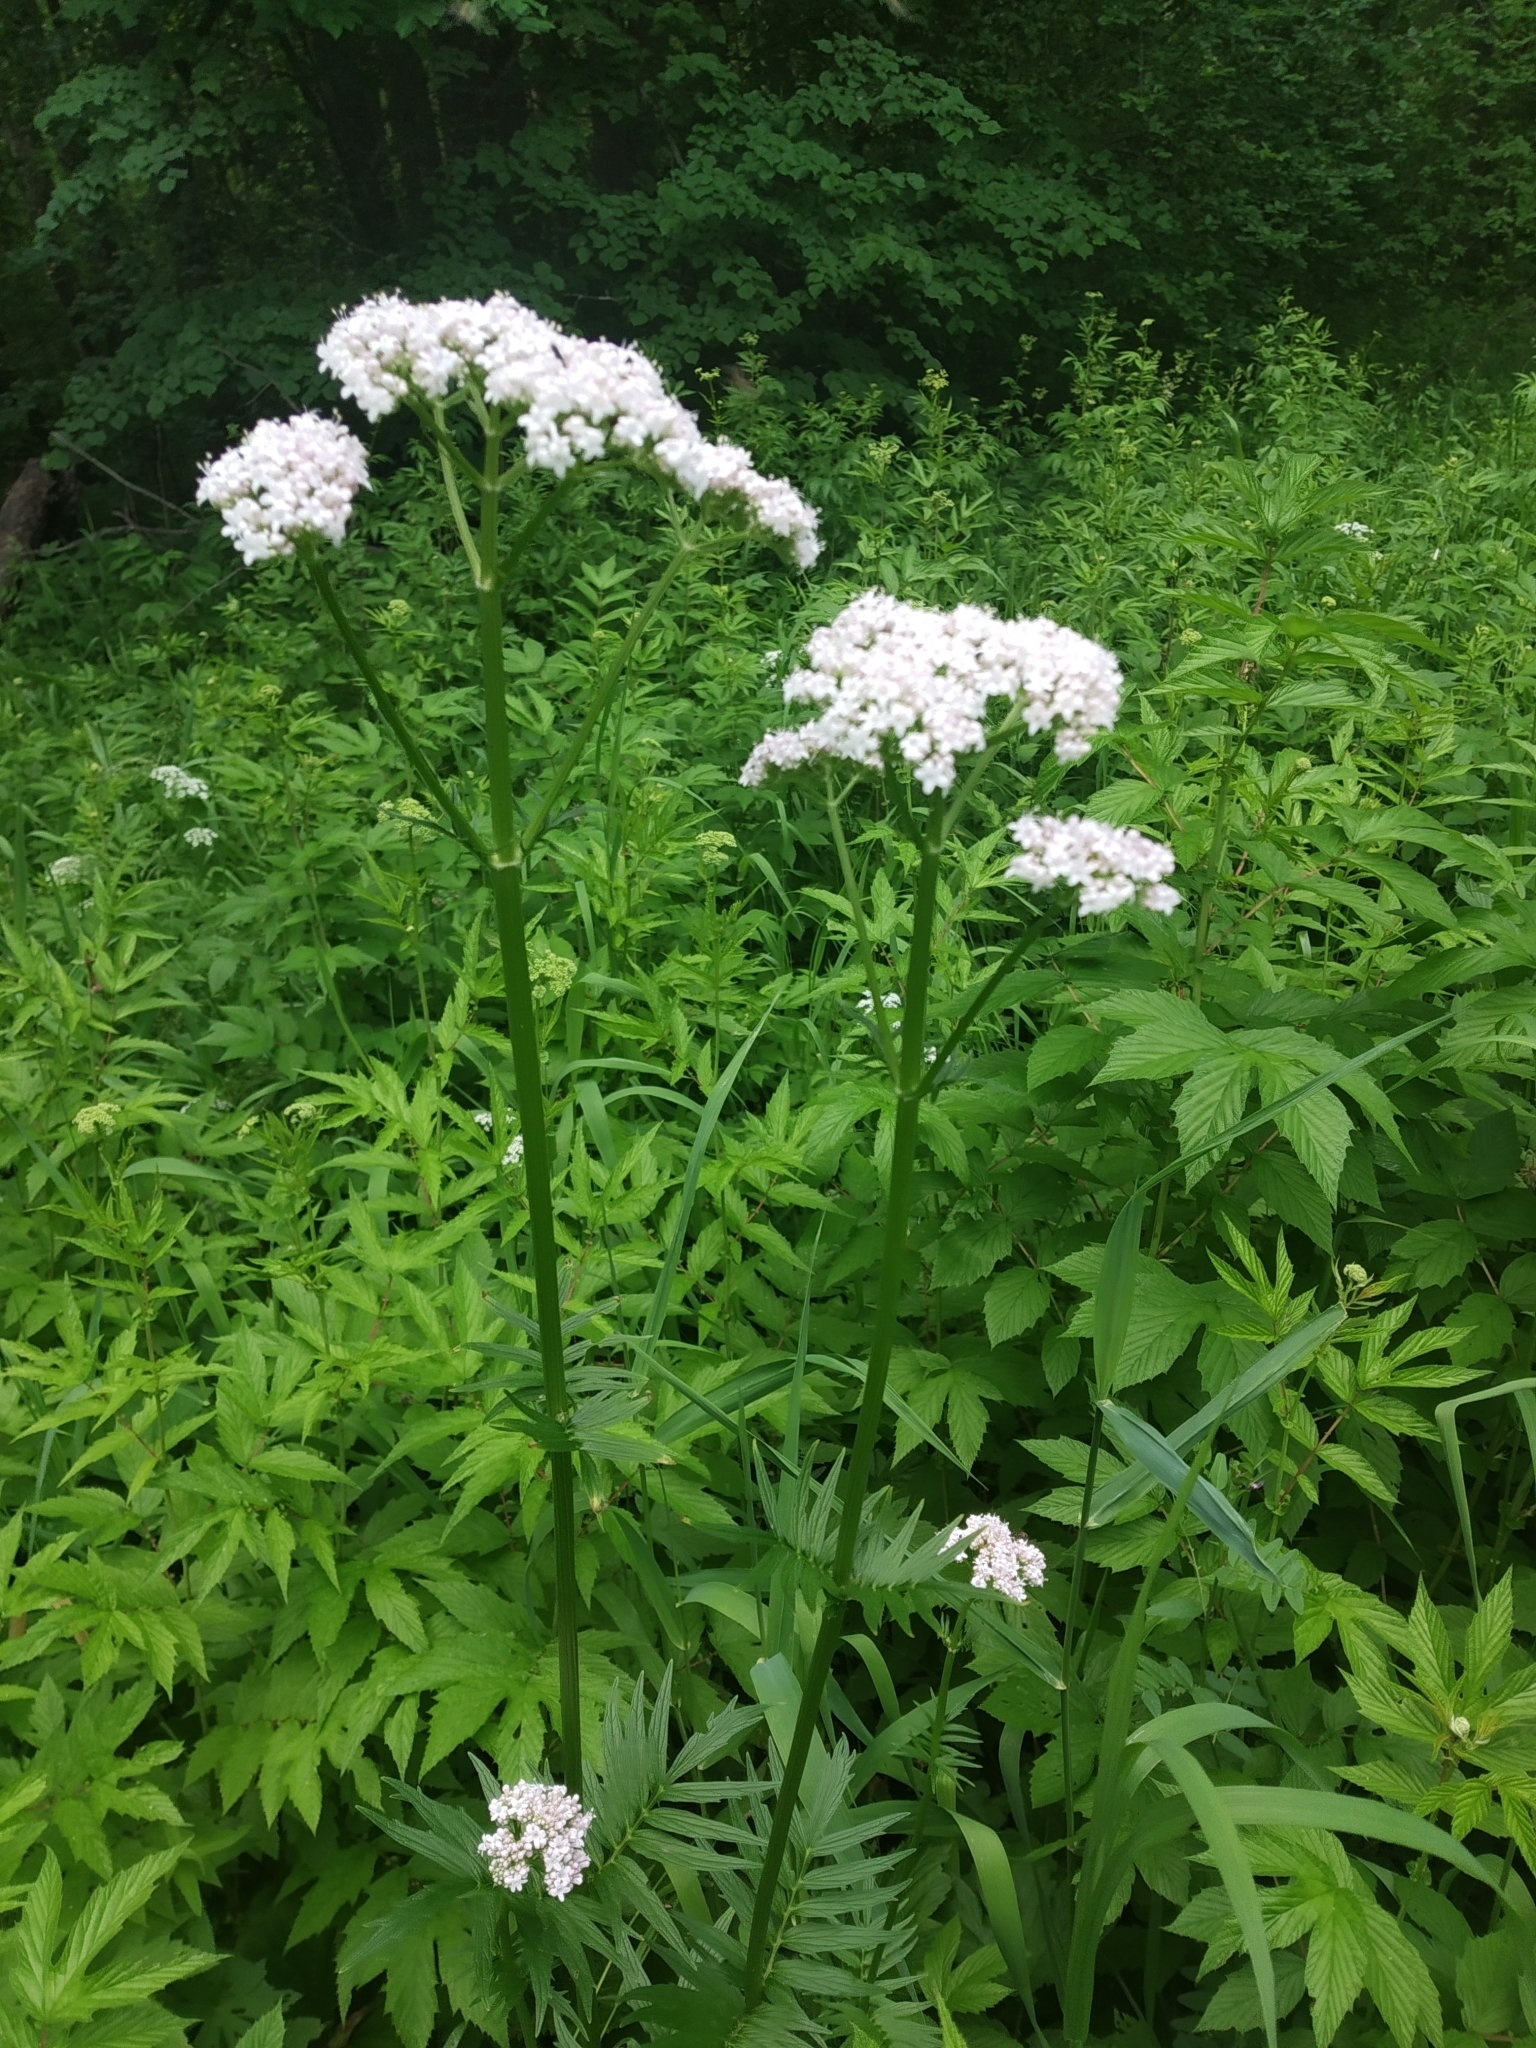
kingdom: Plantae
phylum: Tracheophyta
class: Magnoliopsida
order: Dipsacales
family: Caprifoliaceae
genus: Valeriana
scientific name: Valeriana officinalis
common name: Common valerian
